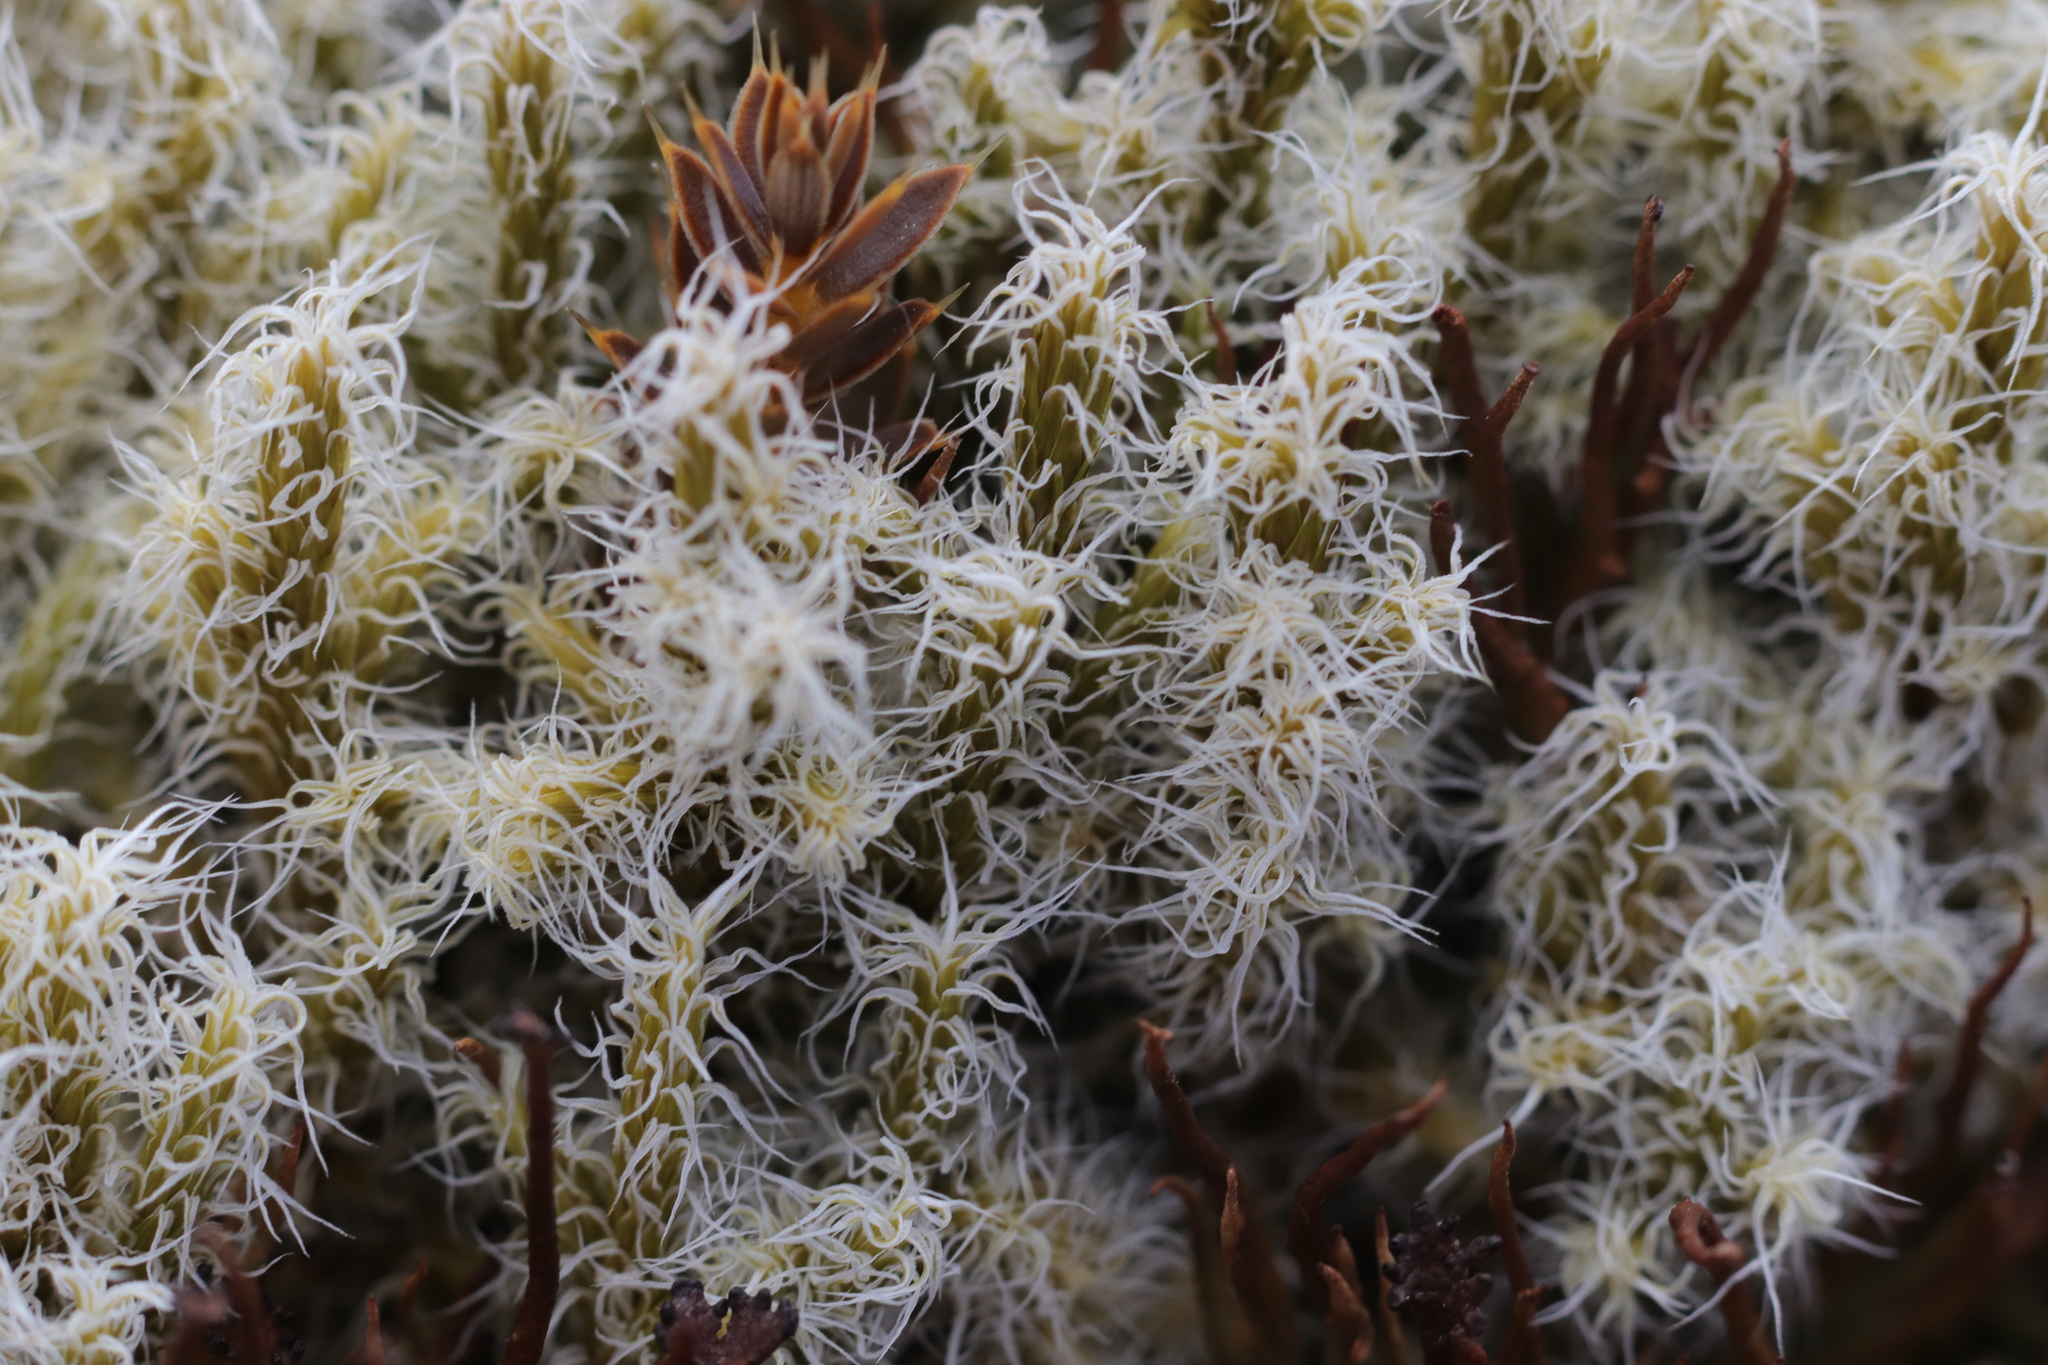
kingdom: Plantae
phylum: Bryophyta
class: Bryopsida
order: Grimmiales
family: Grimmiaceae
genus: Racomitrium
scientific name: Racomitrium lanuginosum
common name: Hoary rock moss
